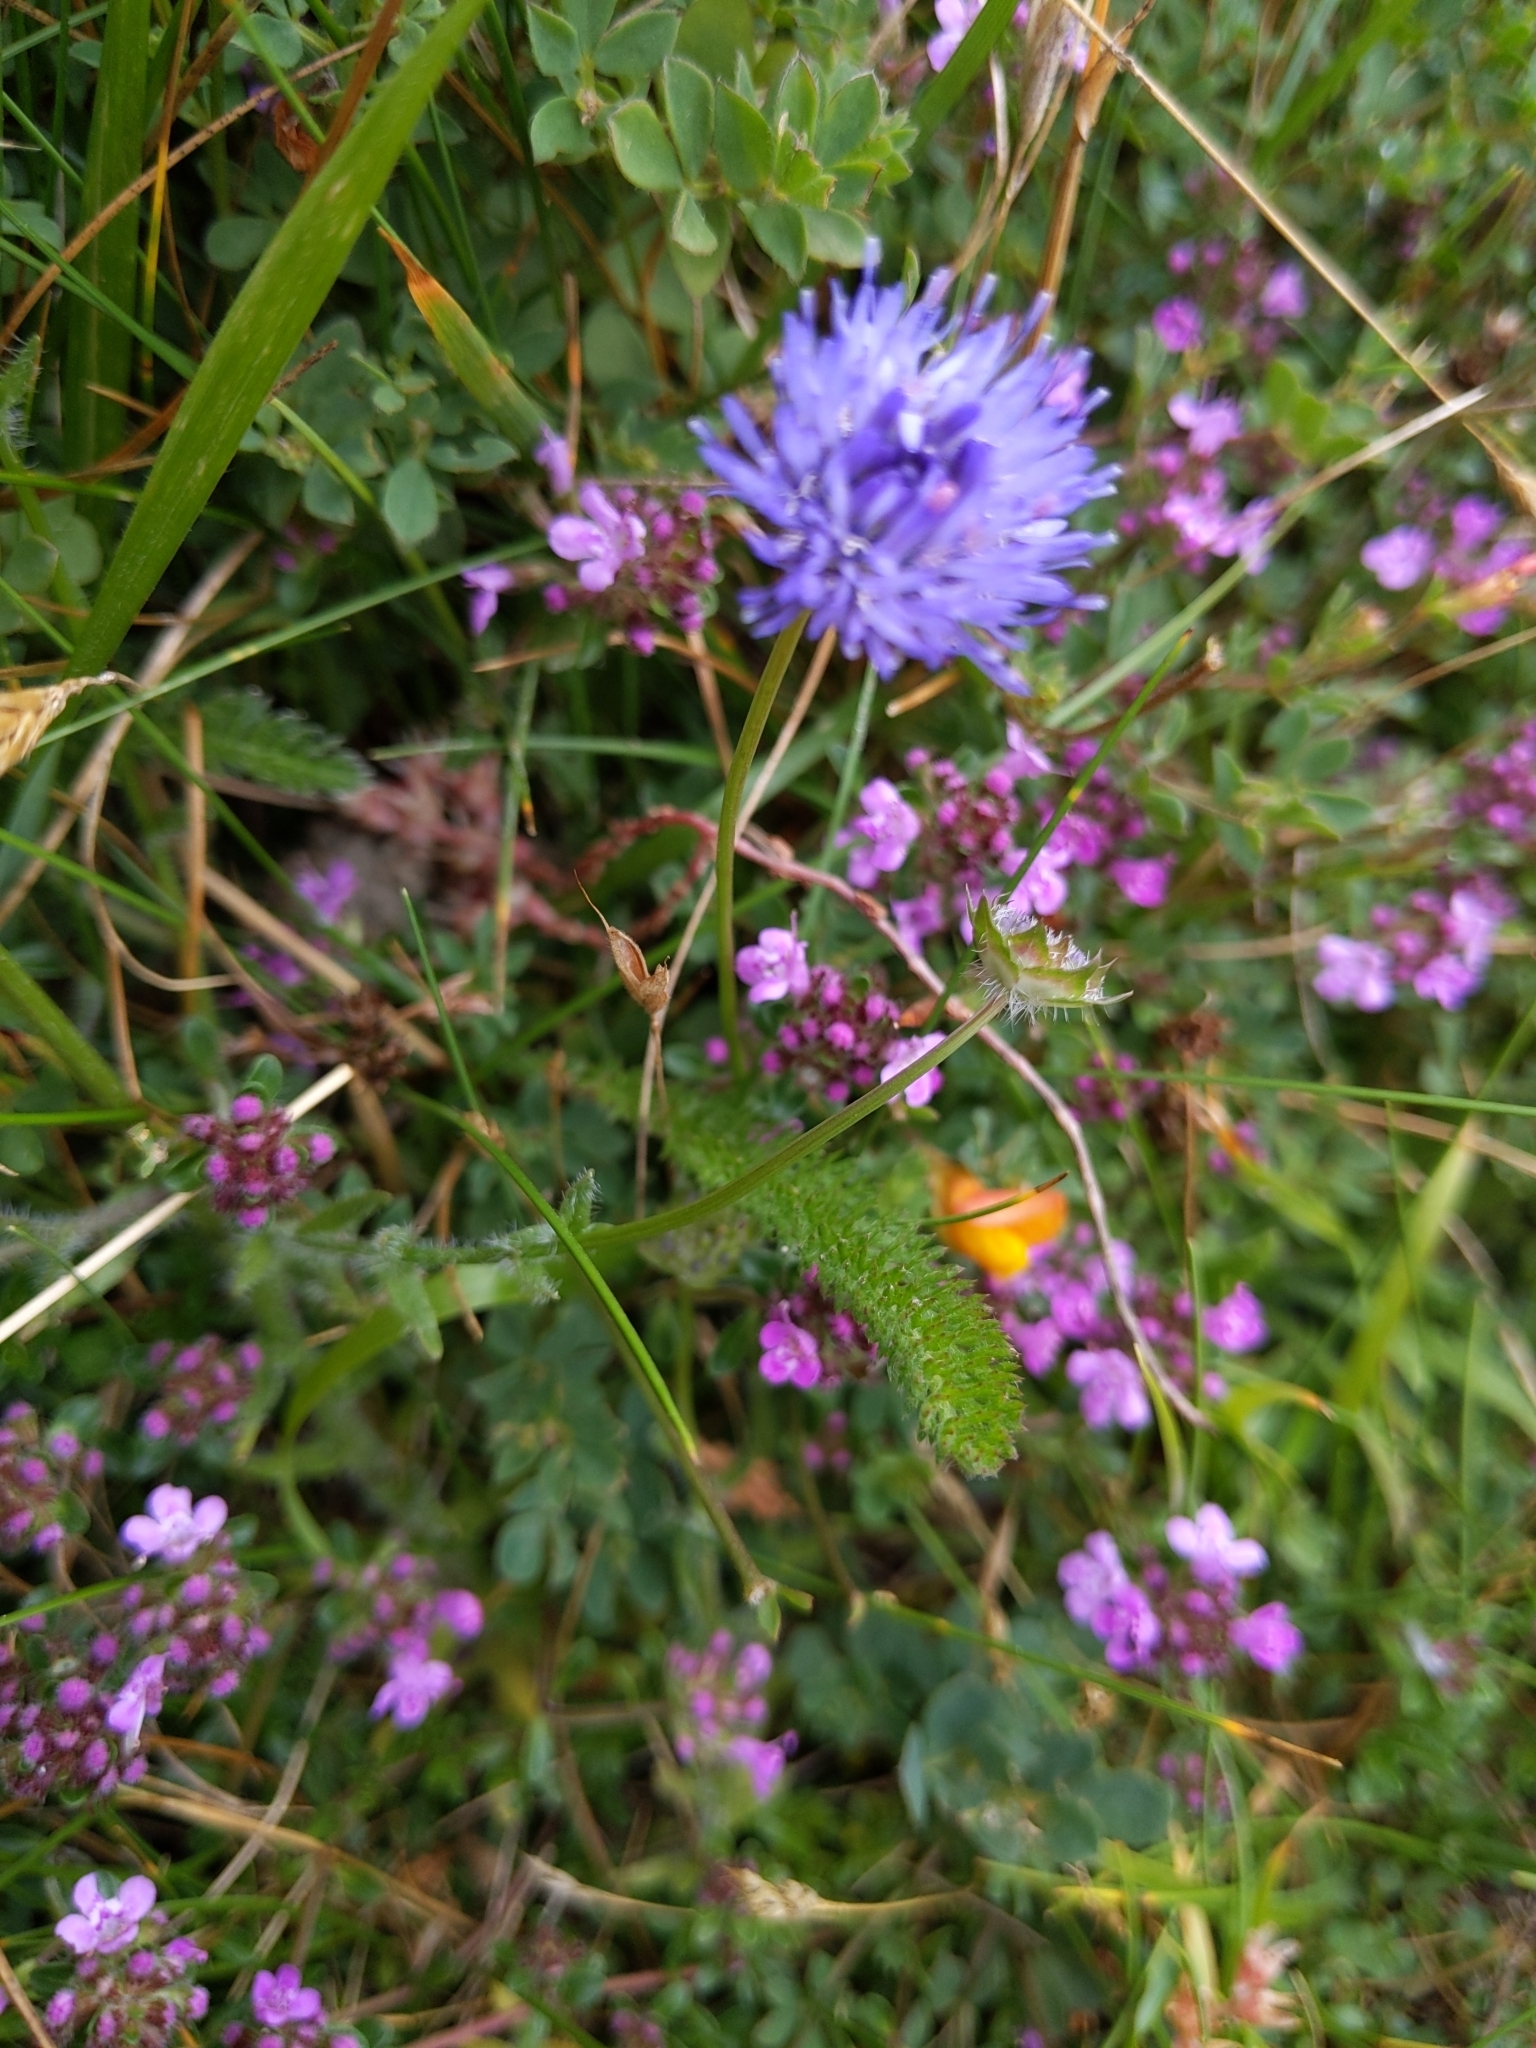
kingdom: Plantae
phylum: Tracheophyta
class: Magnoliopsida
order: Asterales
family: Campanulaceae
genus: Jasione
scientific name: Jasione montana
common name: Sheep's-bit
